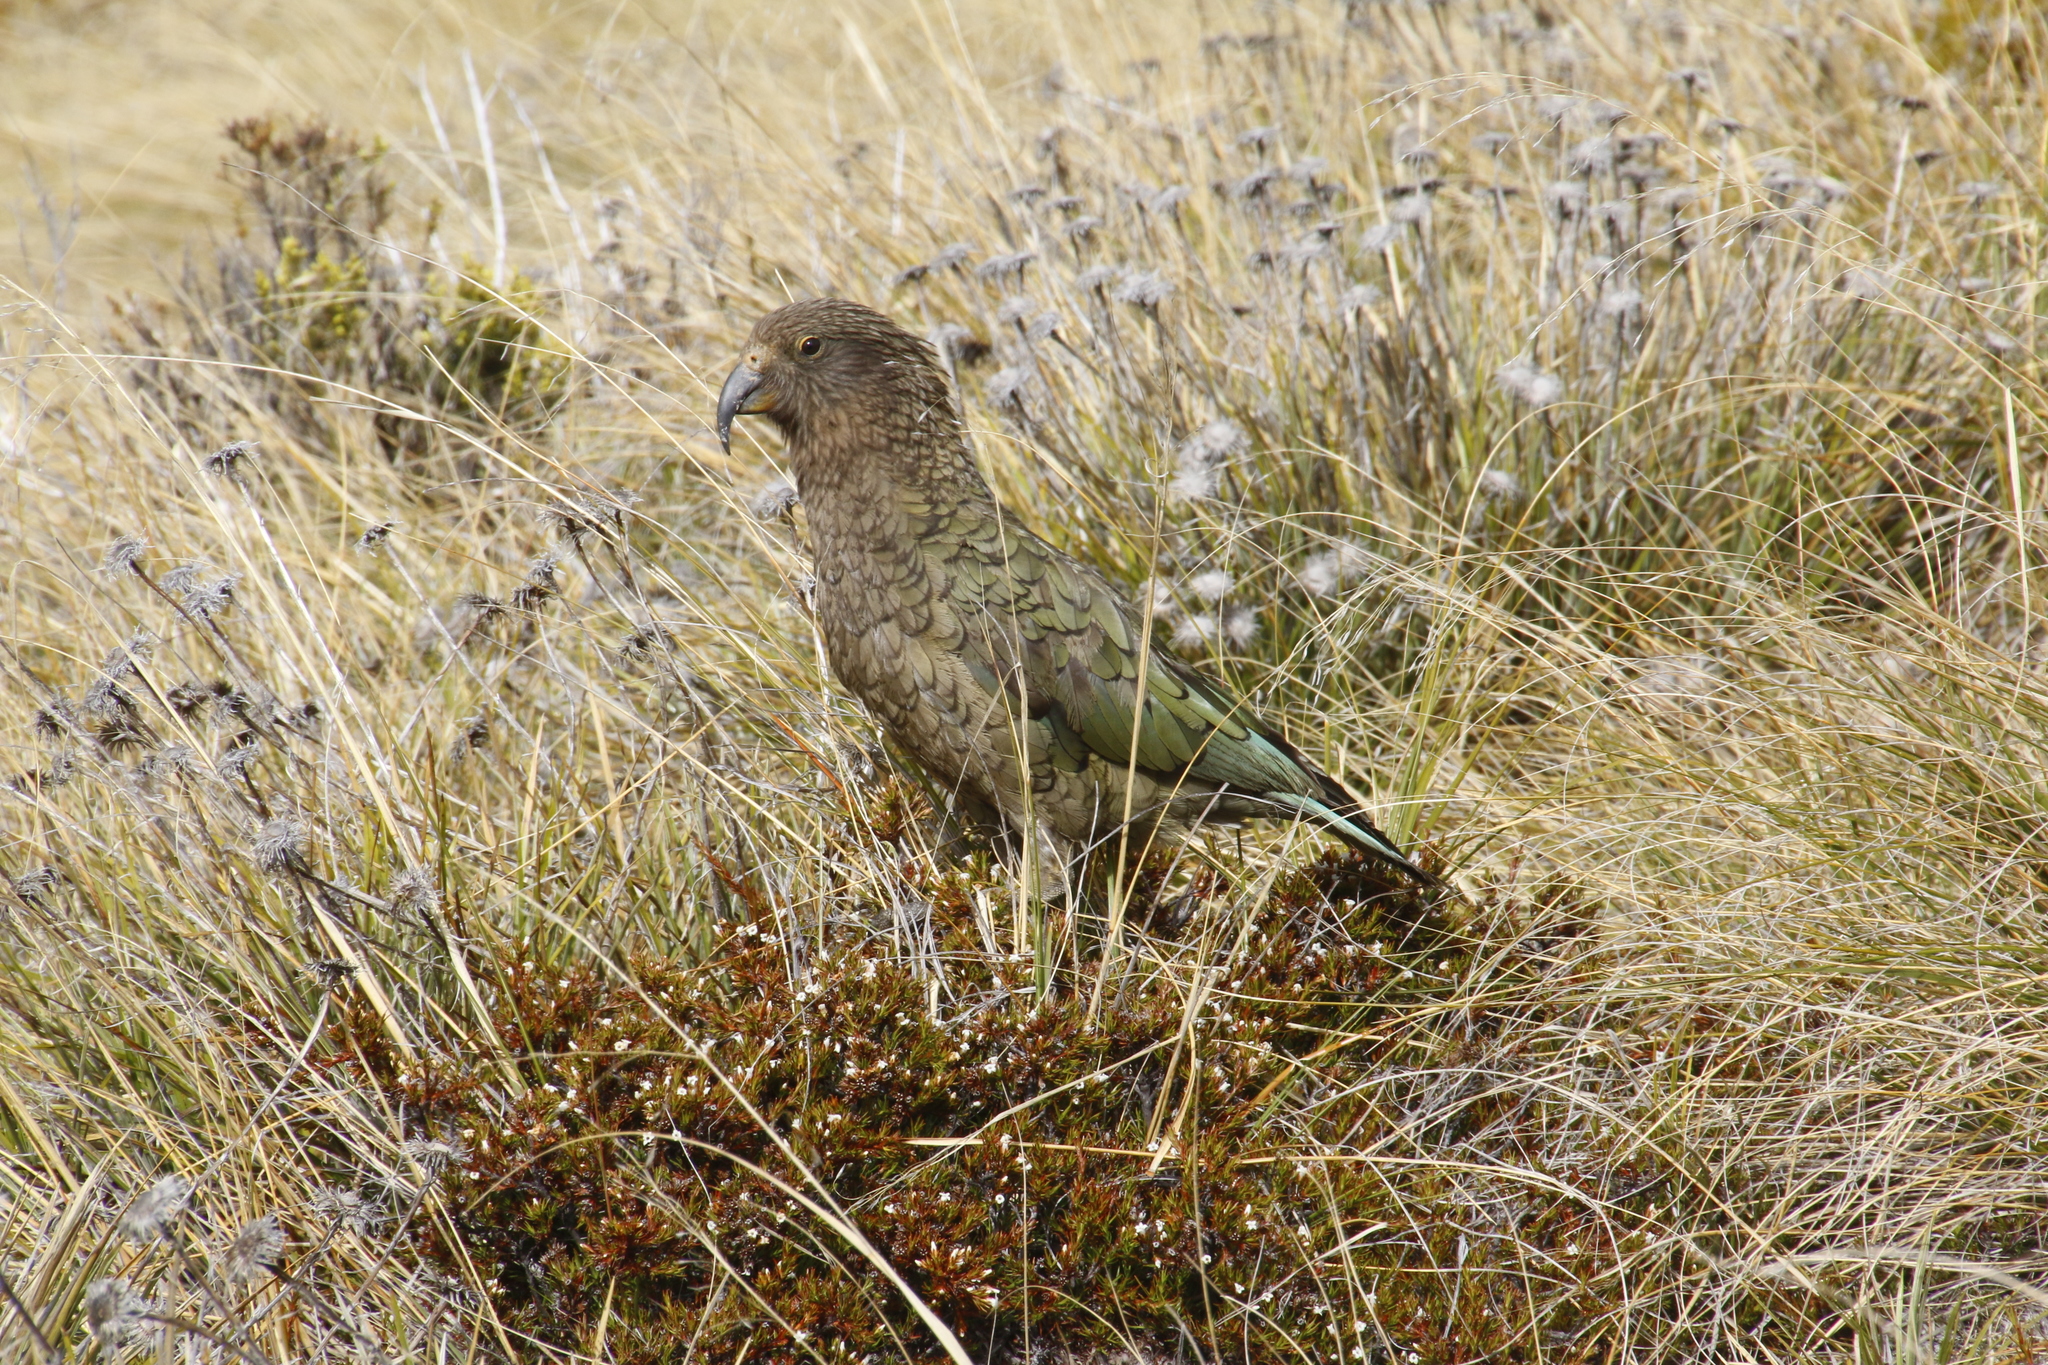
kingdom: Animalia
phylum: Chordata
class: Aves
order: Psittaciformes
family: Psittacidae
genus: Nestor
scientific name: Nestor notabilis
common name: Kea
